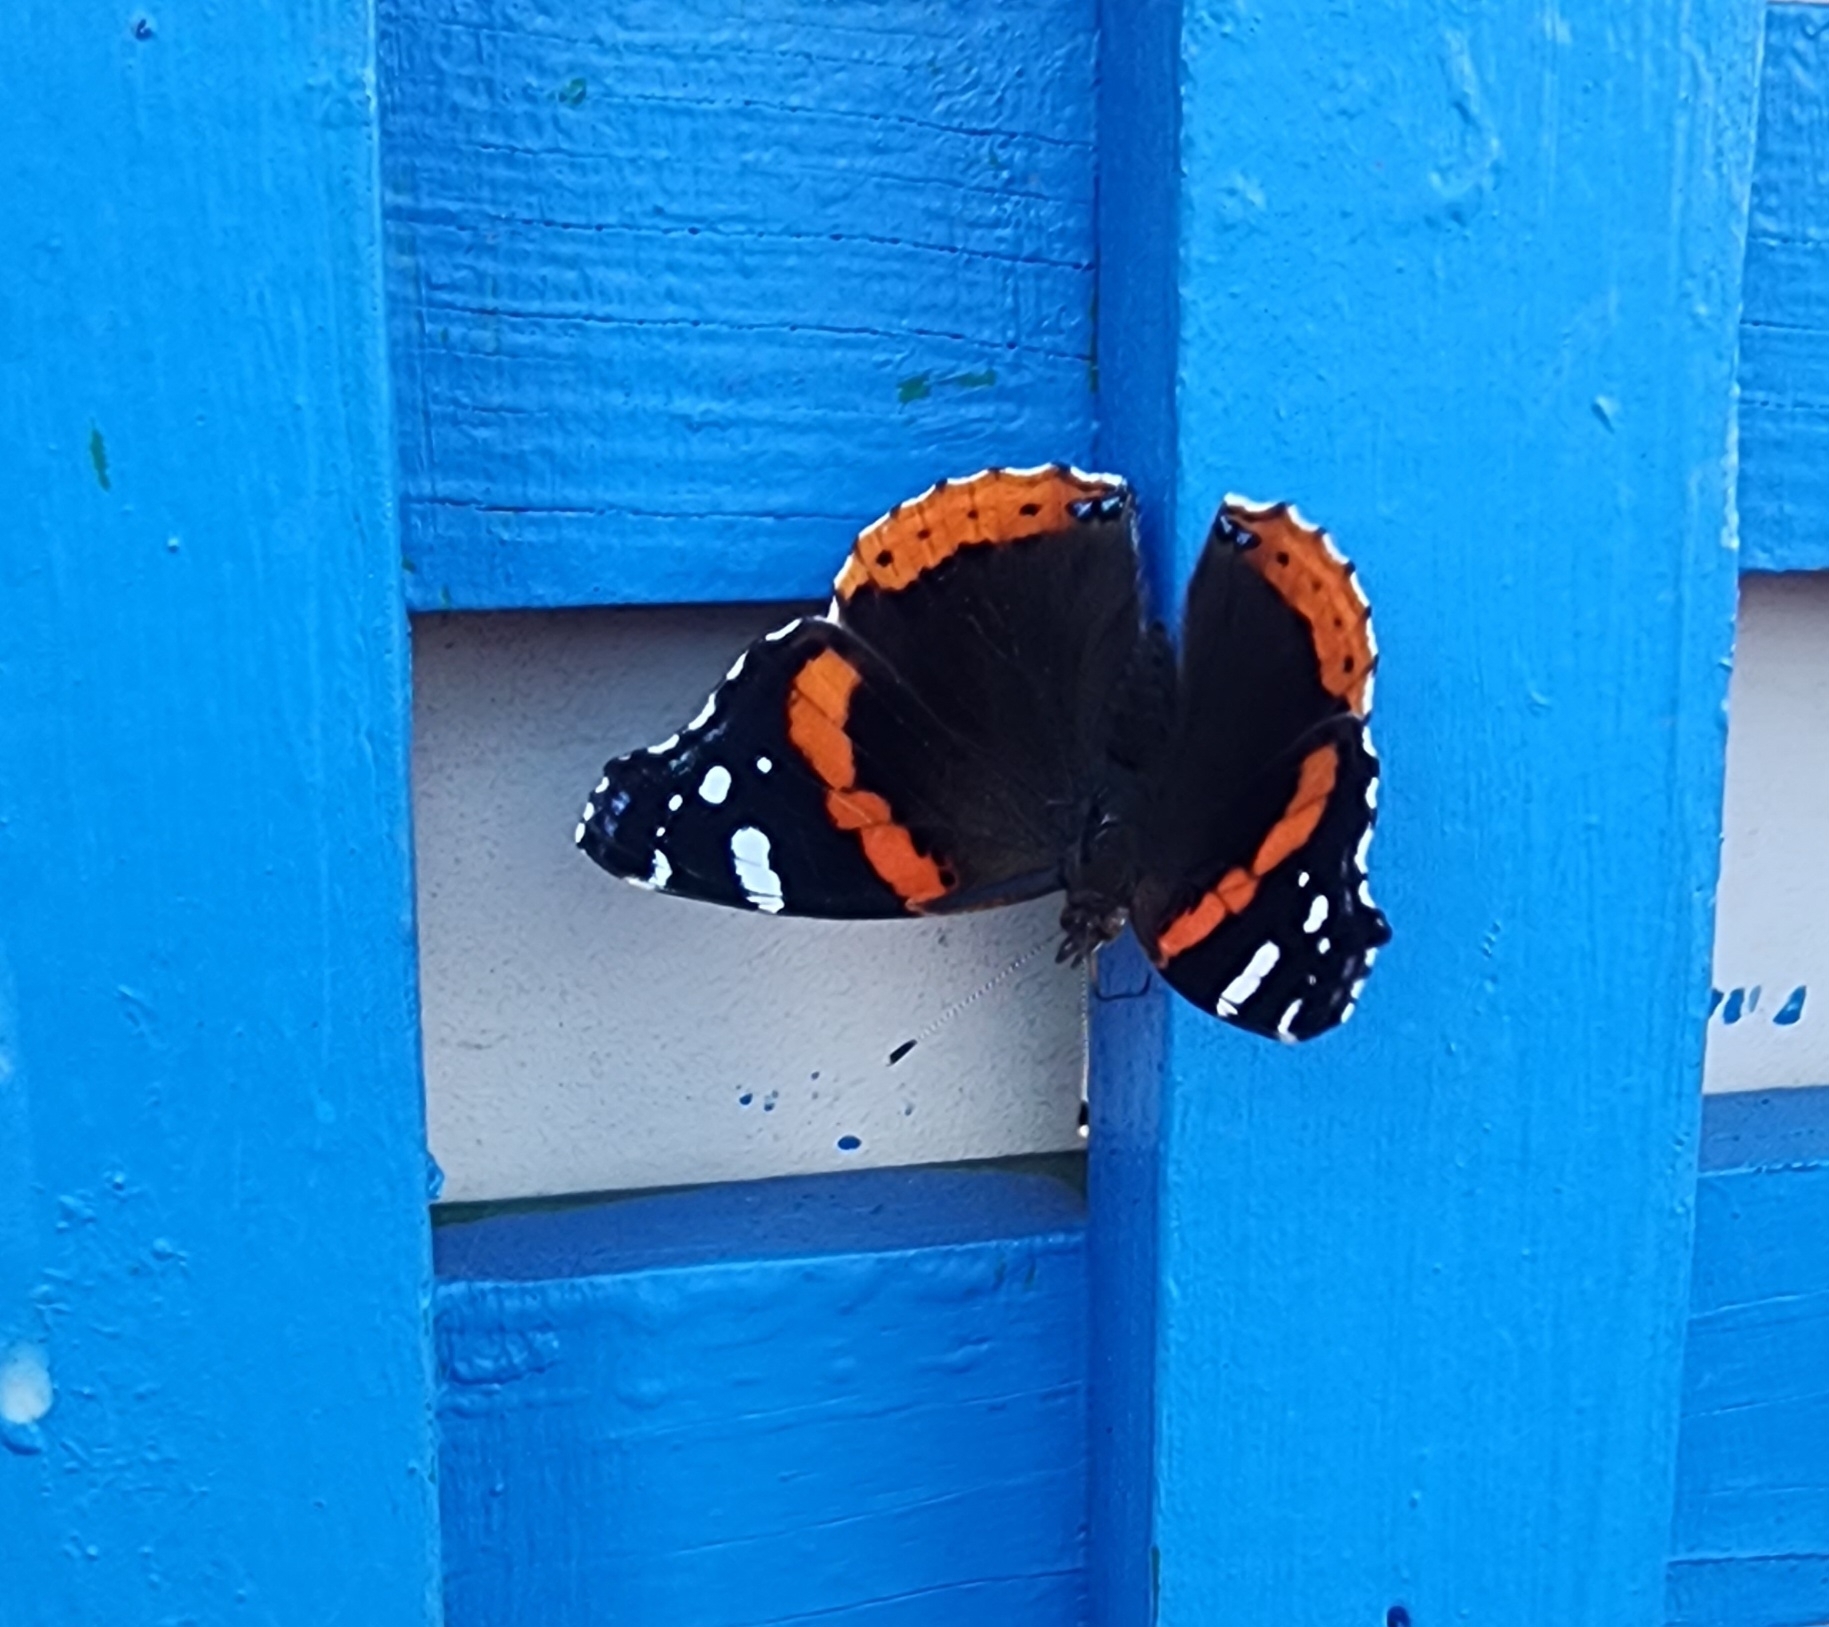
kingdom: Animalia
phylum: Arthropoda
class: Insecta
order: Lepidoptera
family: Nymphalidae
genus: Vanessa
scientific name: Vanessa atalanta
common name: Red admiral
